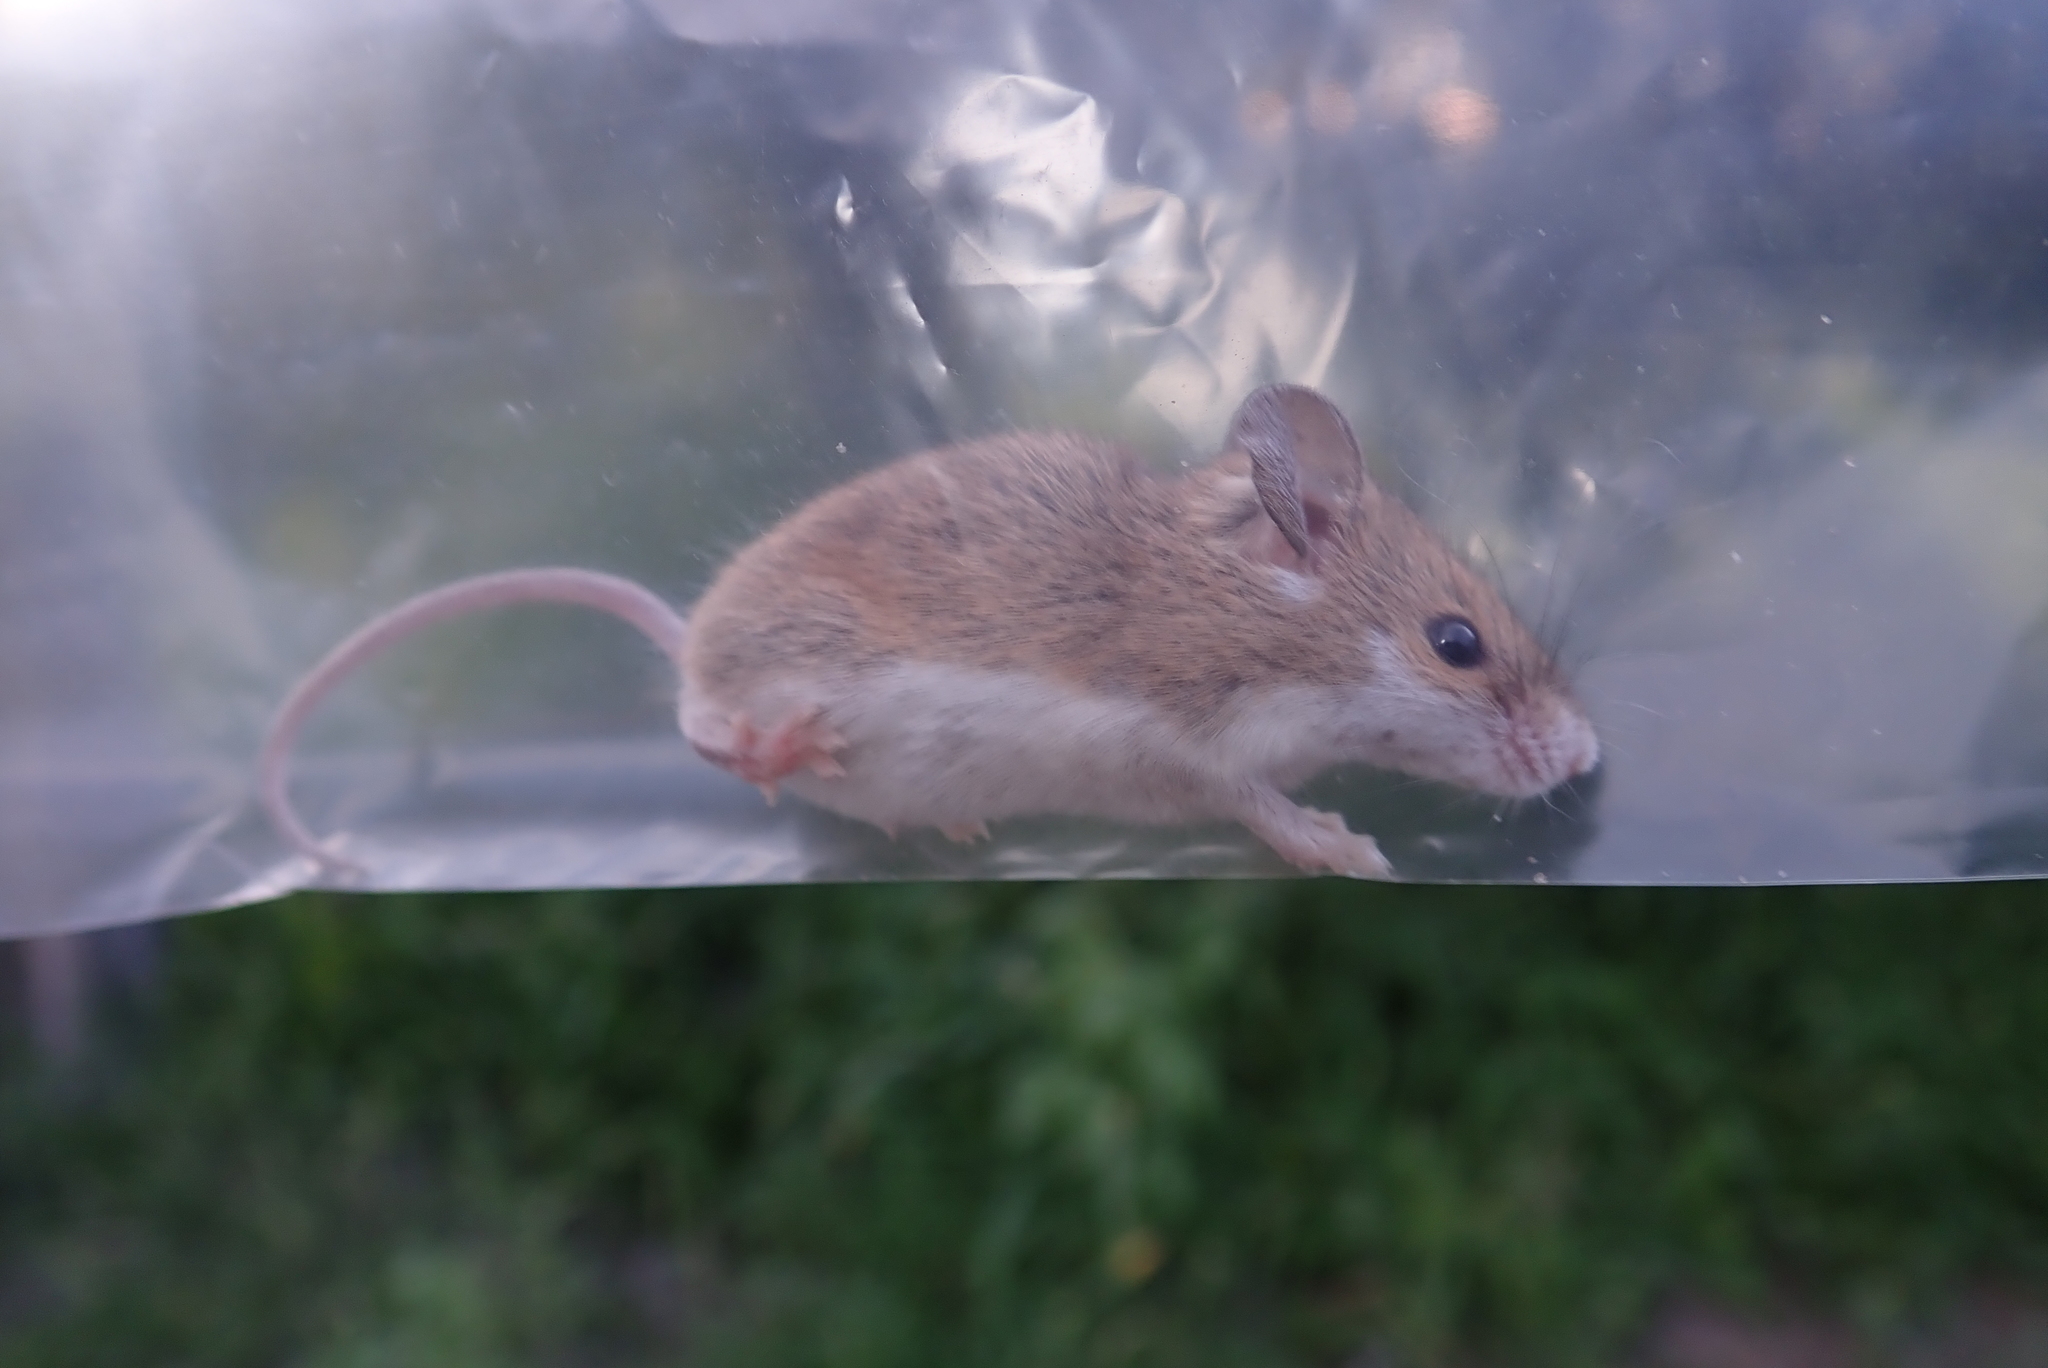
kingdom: Animalia
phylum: Chordata
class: Mammalia
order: Rodentia
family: Muridae
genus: Mus
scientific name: Mus minutoides
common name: Southern african pygmy mouse
